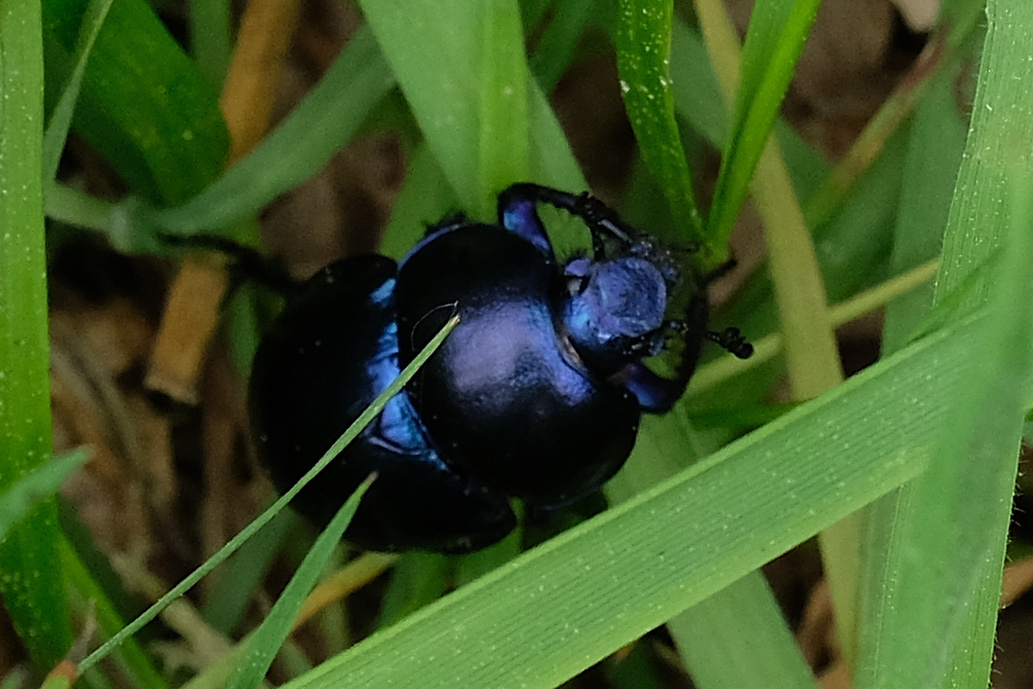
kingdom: Animalia
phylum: Arthropoda
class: Insecta
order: Coleoptera
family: Geotrupidae
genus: Trypocopris
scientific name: Trypocopris vernalis
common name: Spring dumbledor
